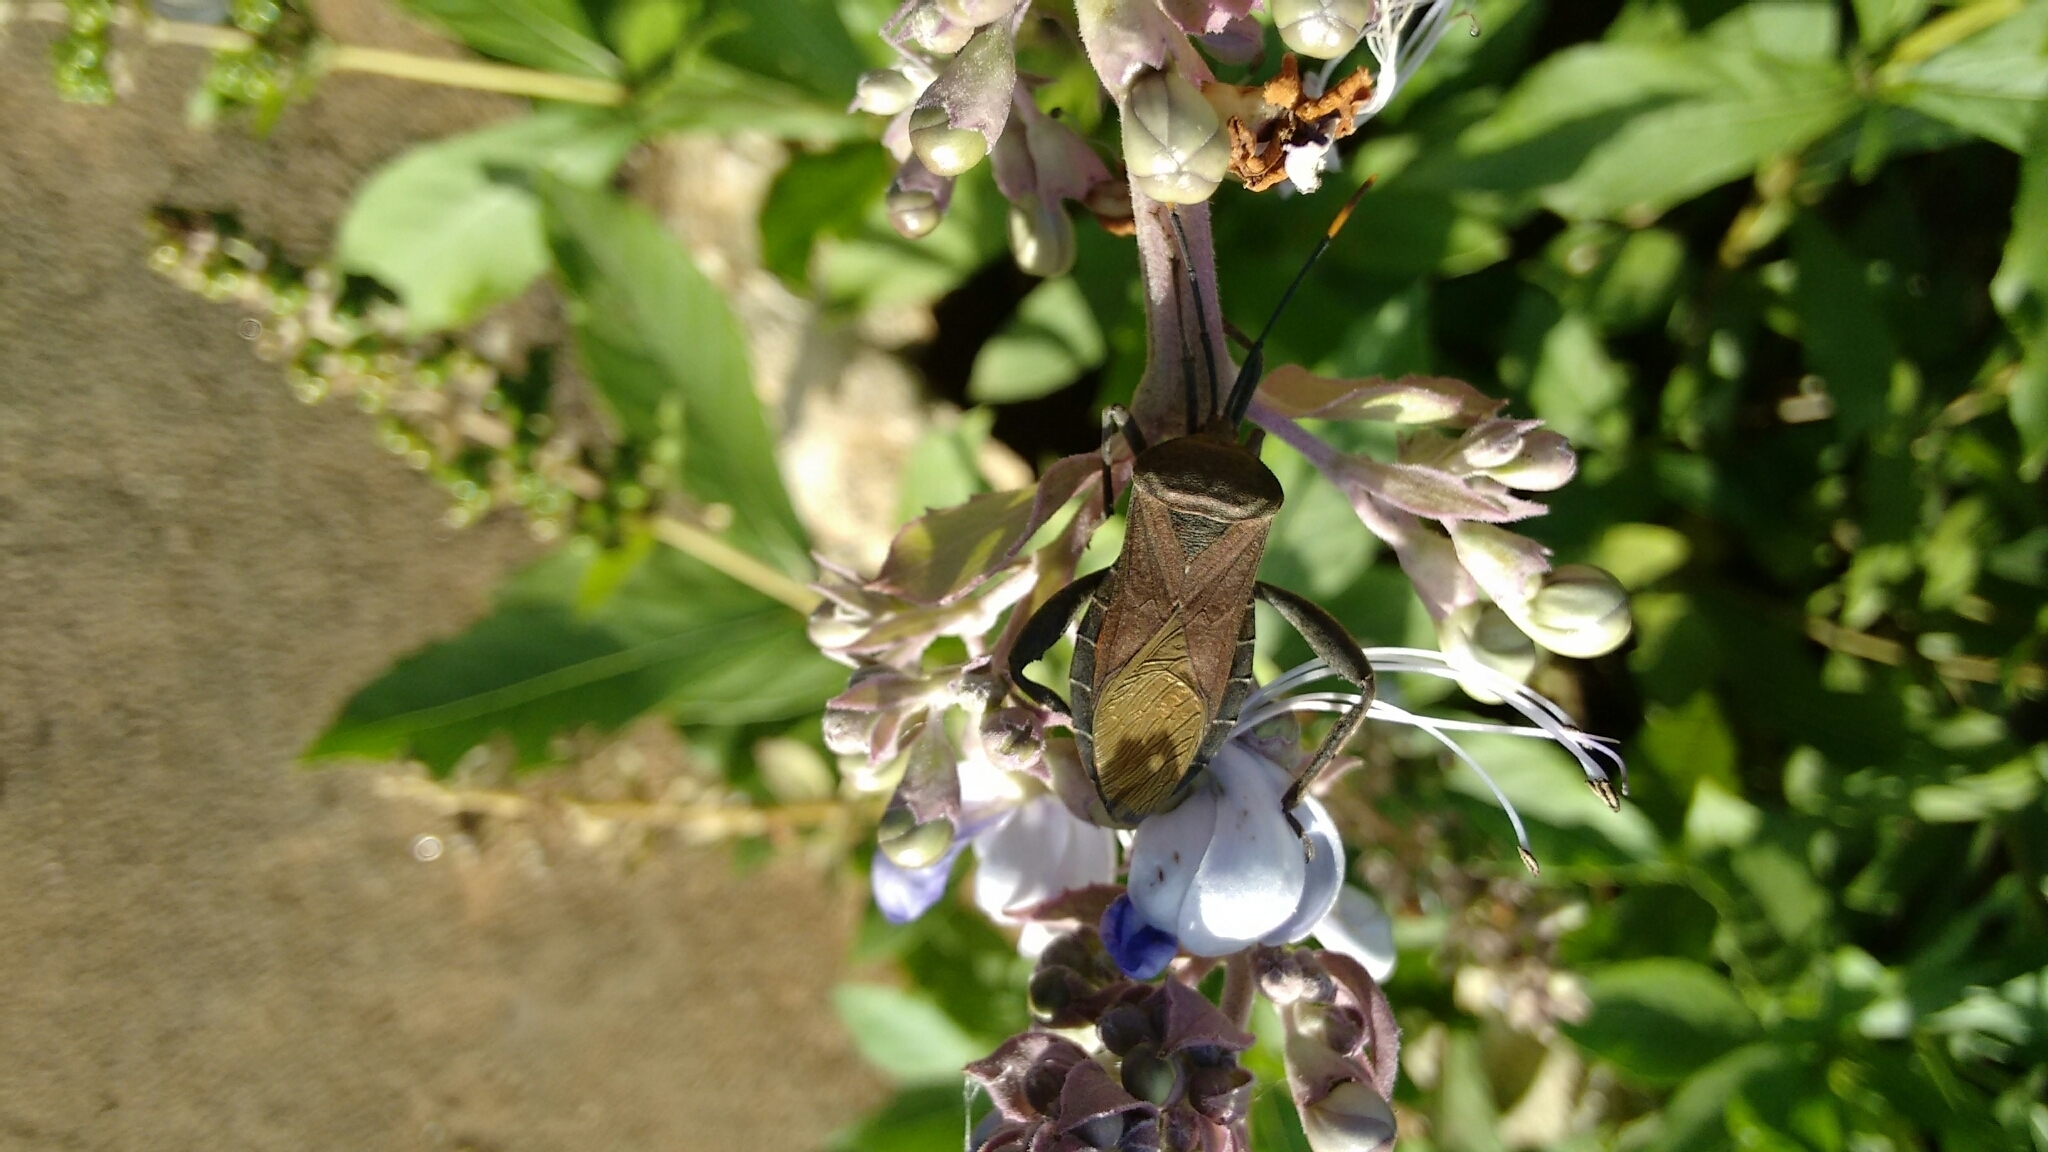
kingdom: Animalia
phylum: Arthropoda
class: Insecta
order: Hemiptera
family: Coreidae
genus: Anoplocnemis
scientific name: Anoplocnemis phasianus
